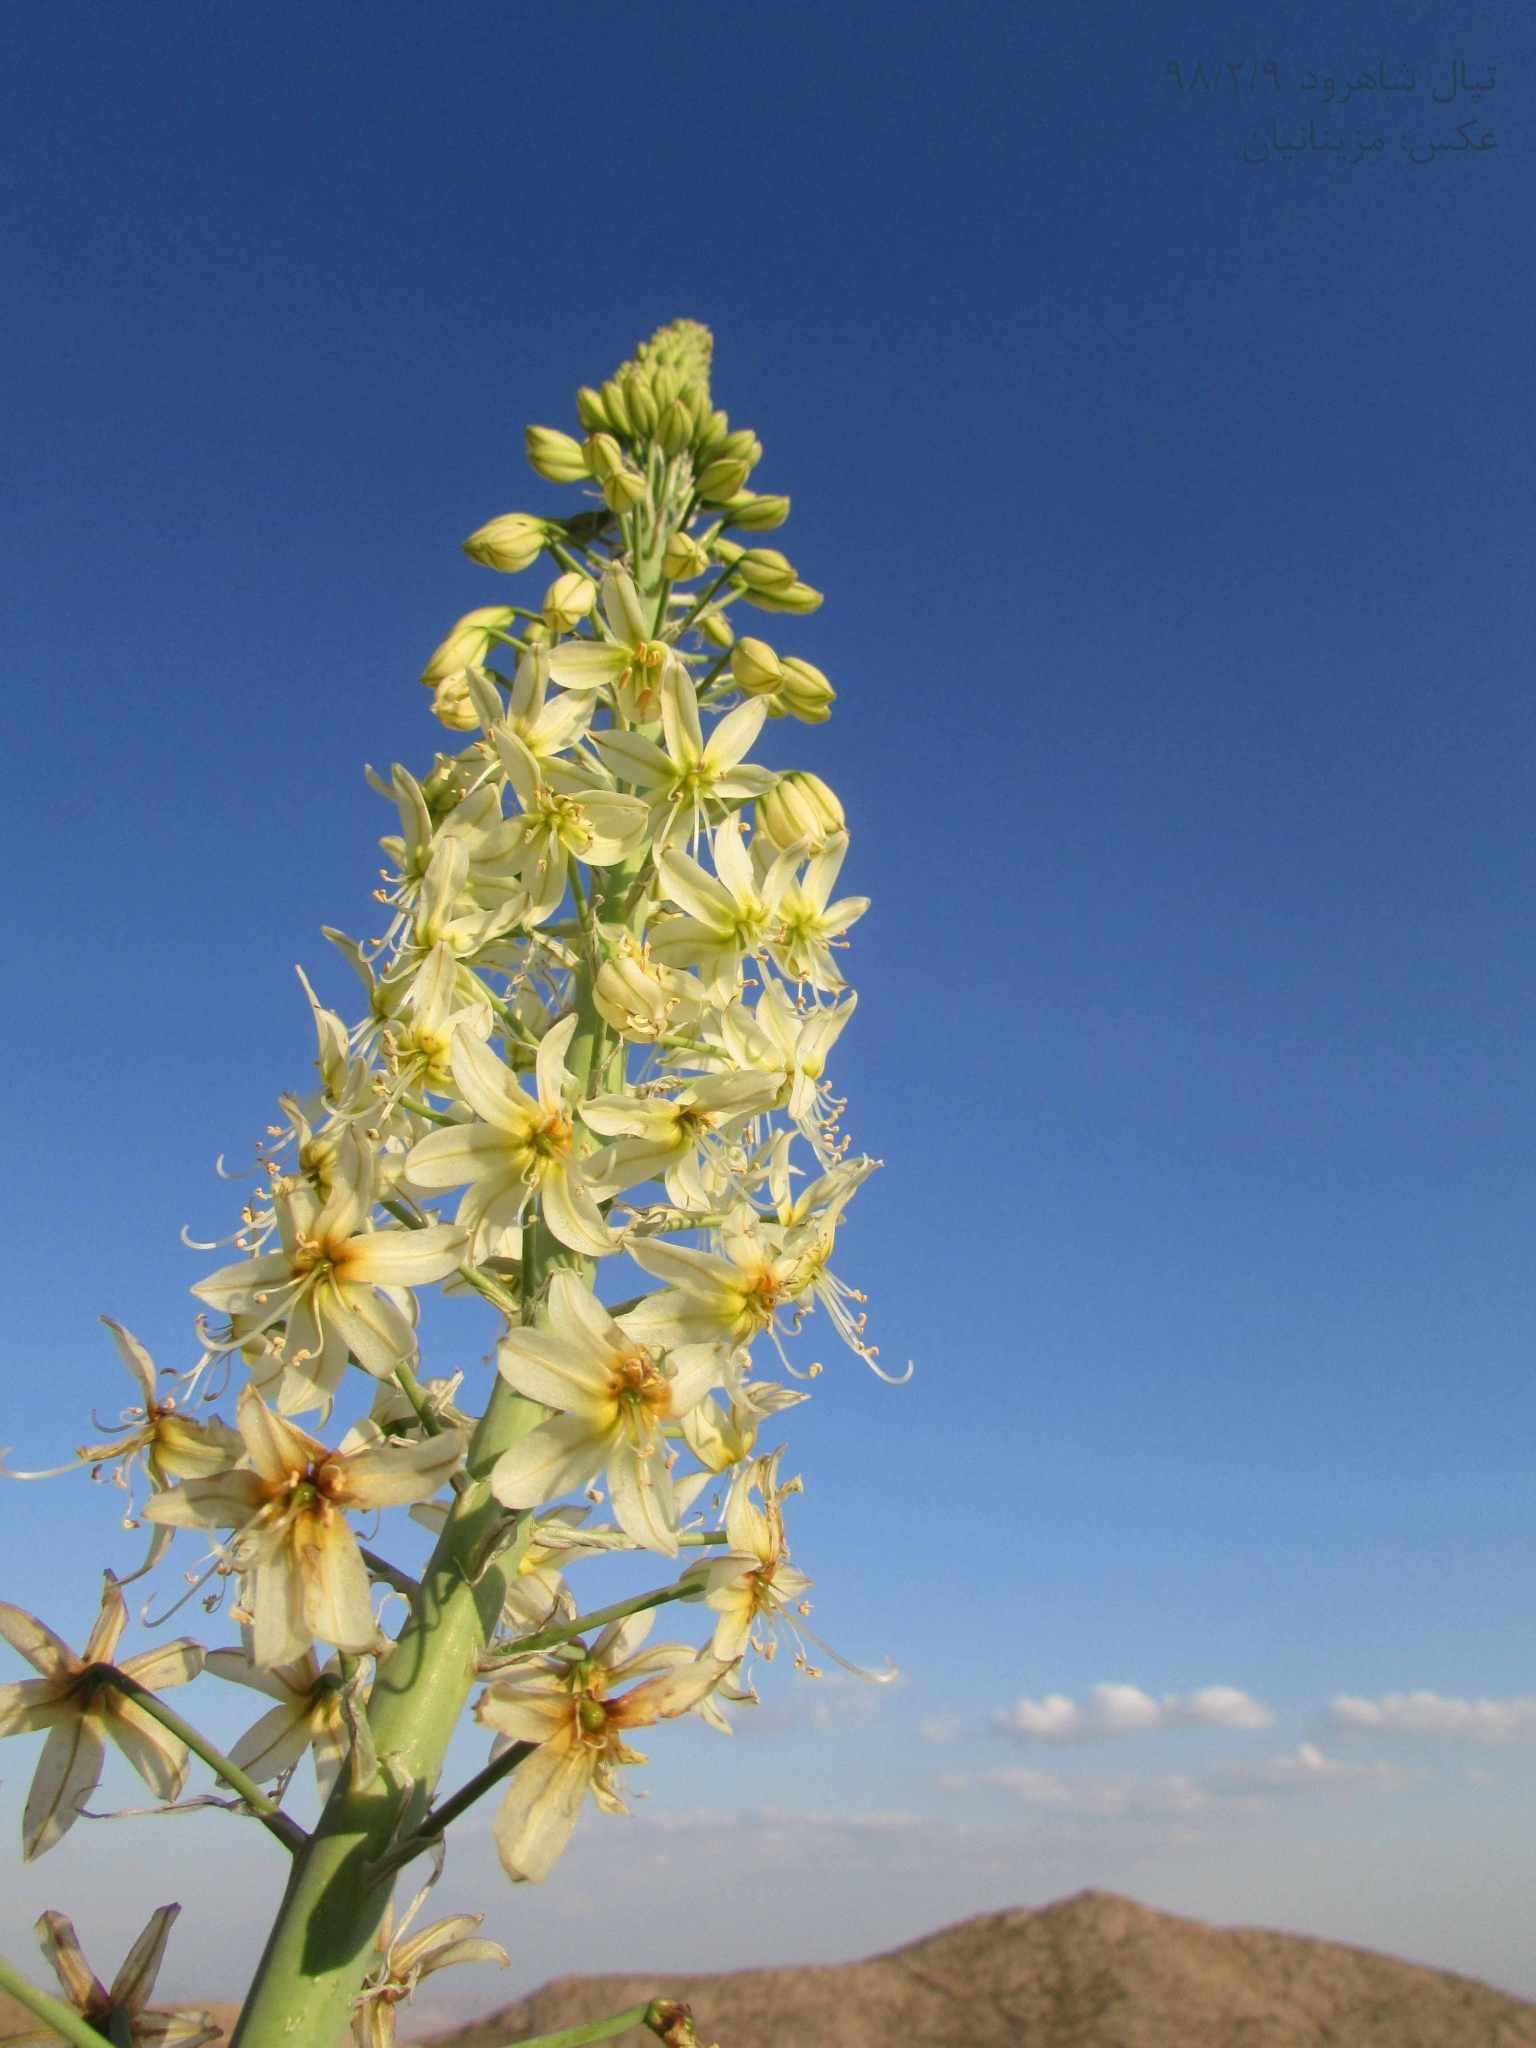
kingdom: Plantae
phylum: Tracheophyta
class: Liliopsida
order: Asparagales
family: Asphodelaceae
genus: Eremurus
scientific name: Eremurus luteus
